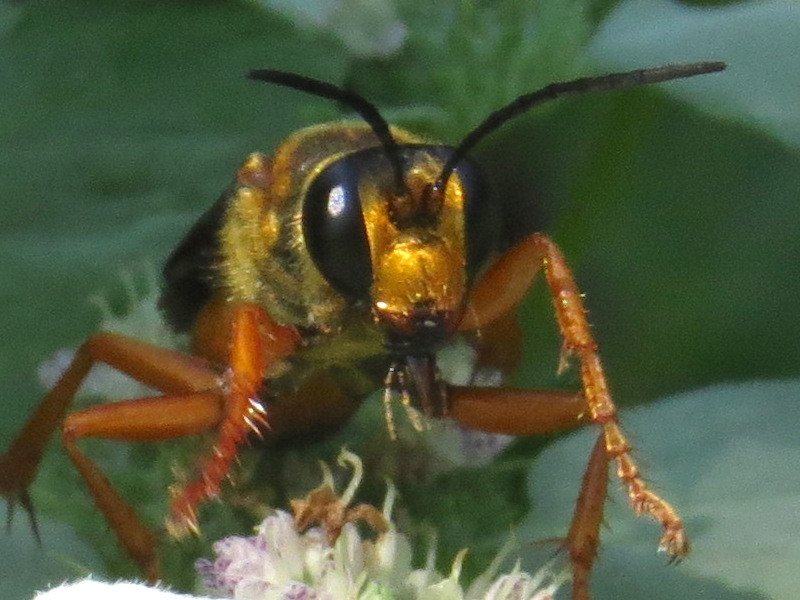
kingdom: Animalia
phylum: Arthropoda
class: Insecta
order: Hymenoptera
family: Sphecidae
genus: Sphex
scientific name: Sphex ichneumoneus
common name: Great golden digger wasp
